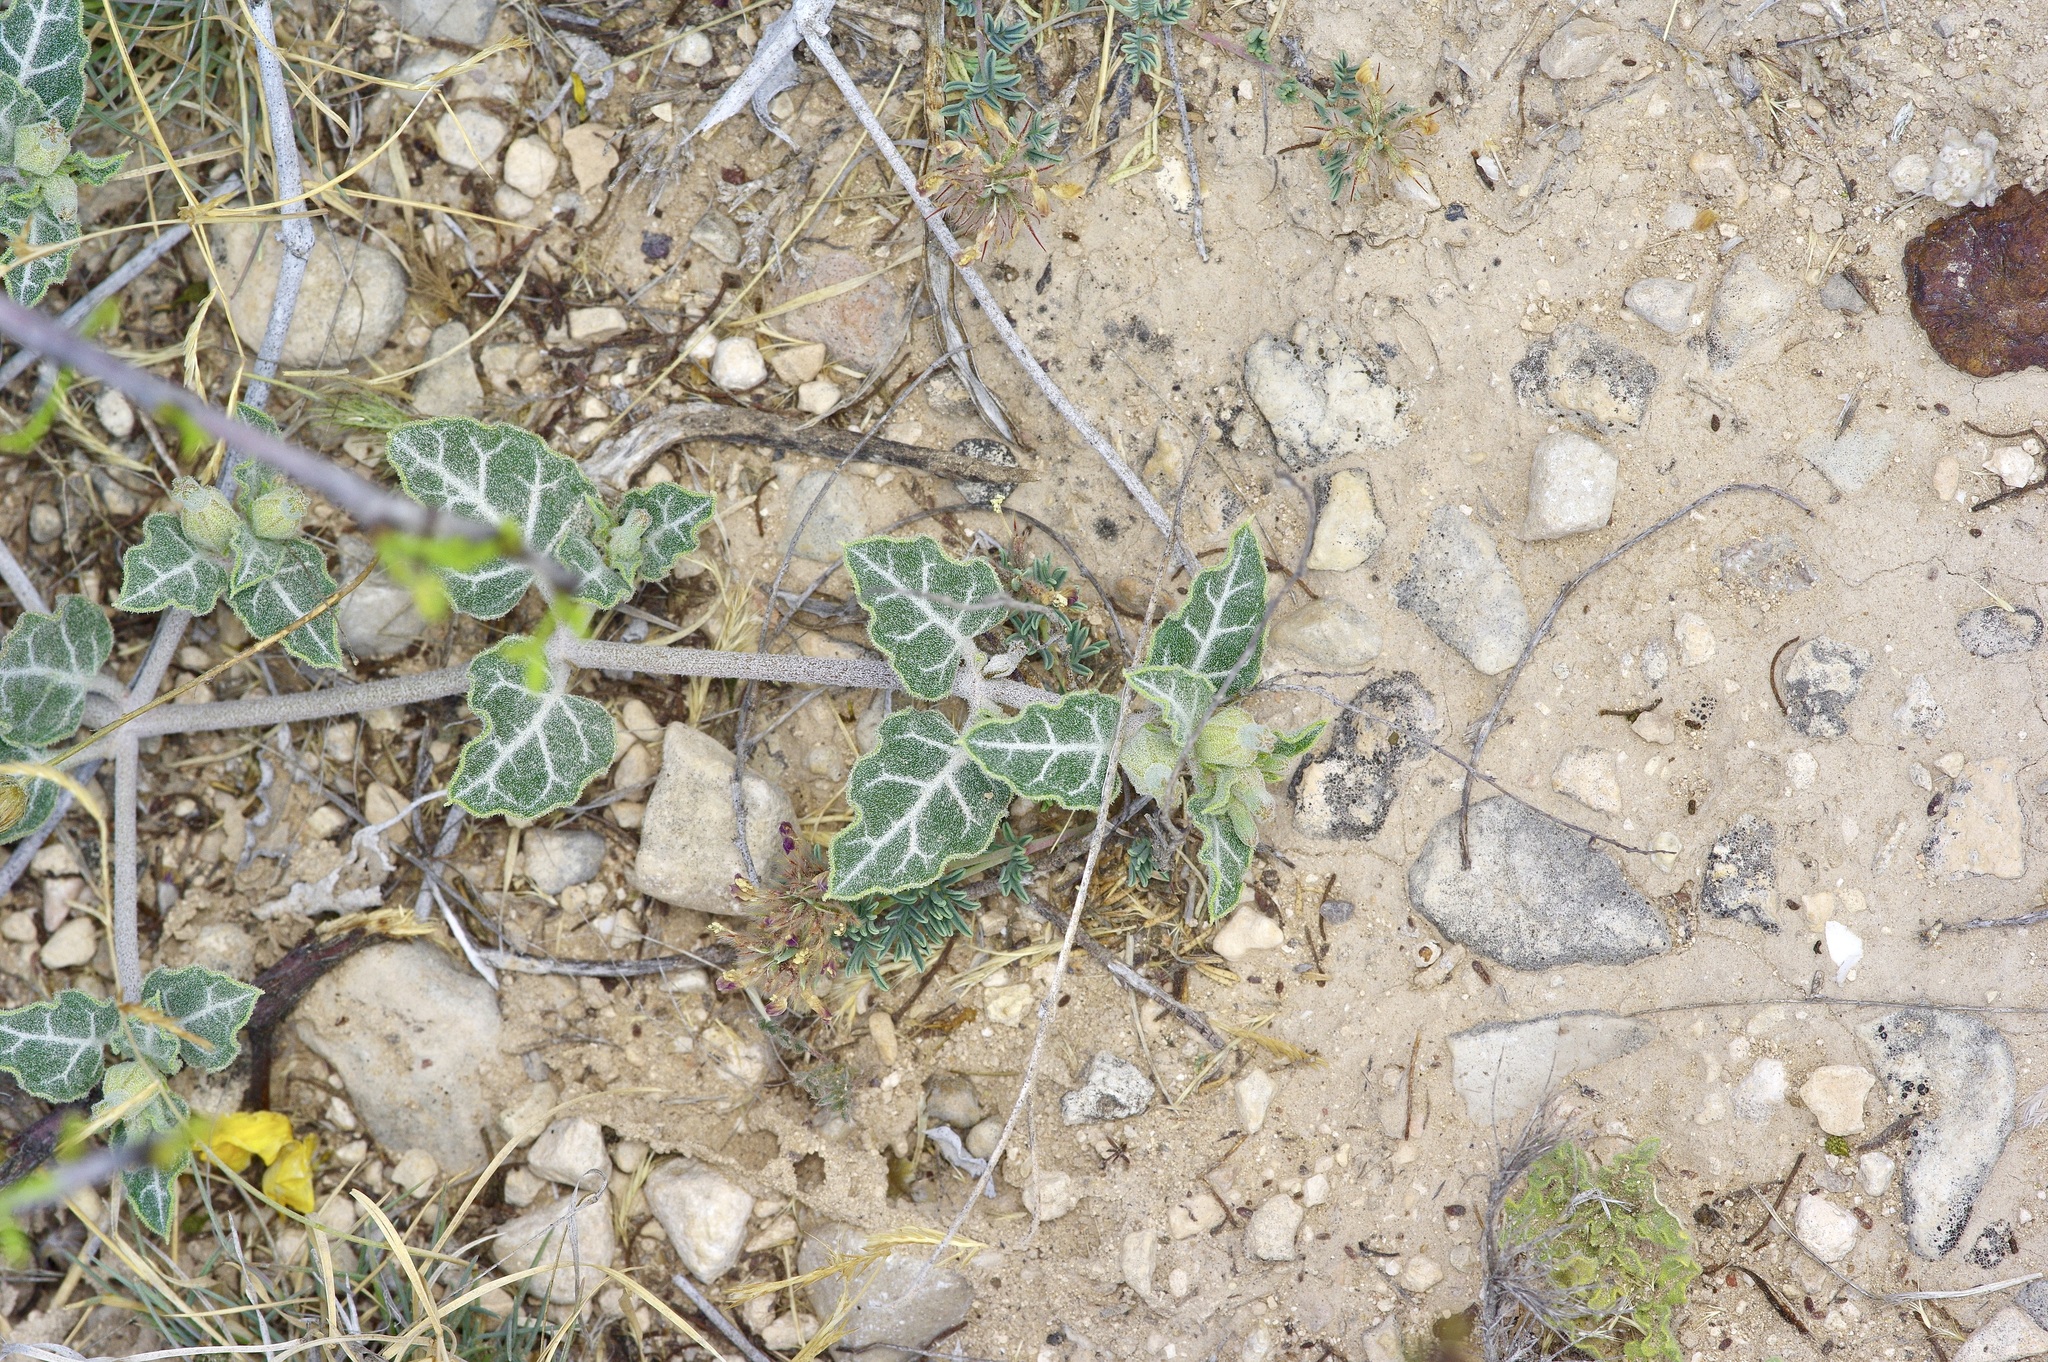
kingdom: Plantae
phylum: Tracheophyta
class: Magnoliopsida
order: Caryophyllales
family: Nyctaginaceae
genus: Acleisanthes
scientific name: Acleisanthes crassifolia
